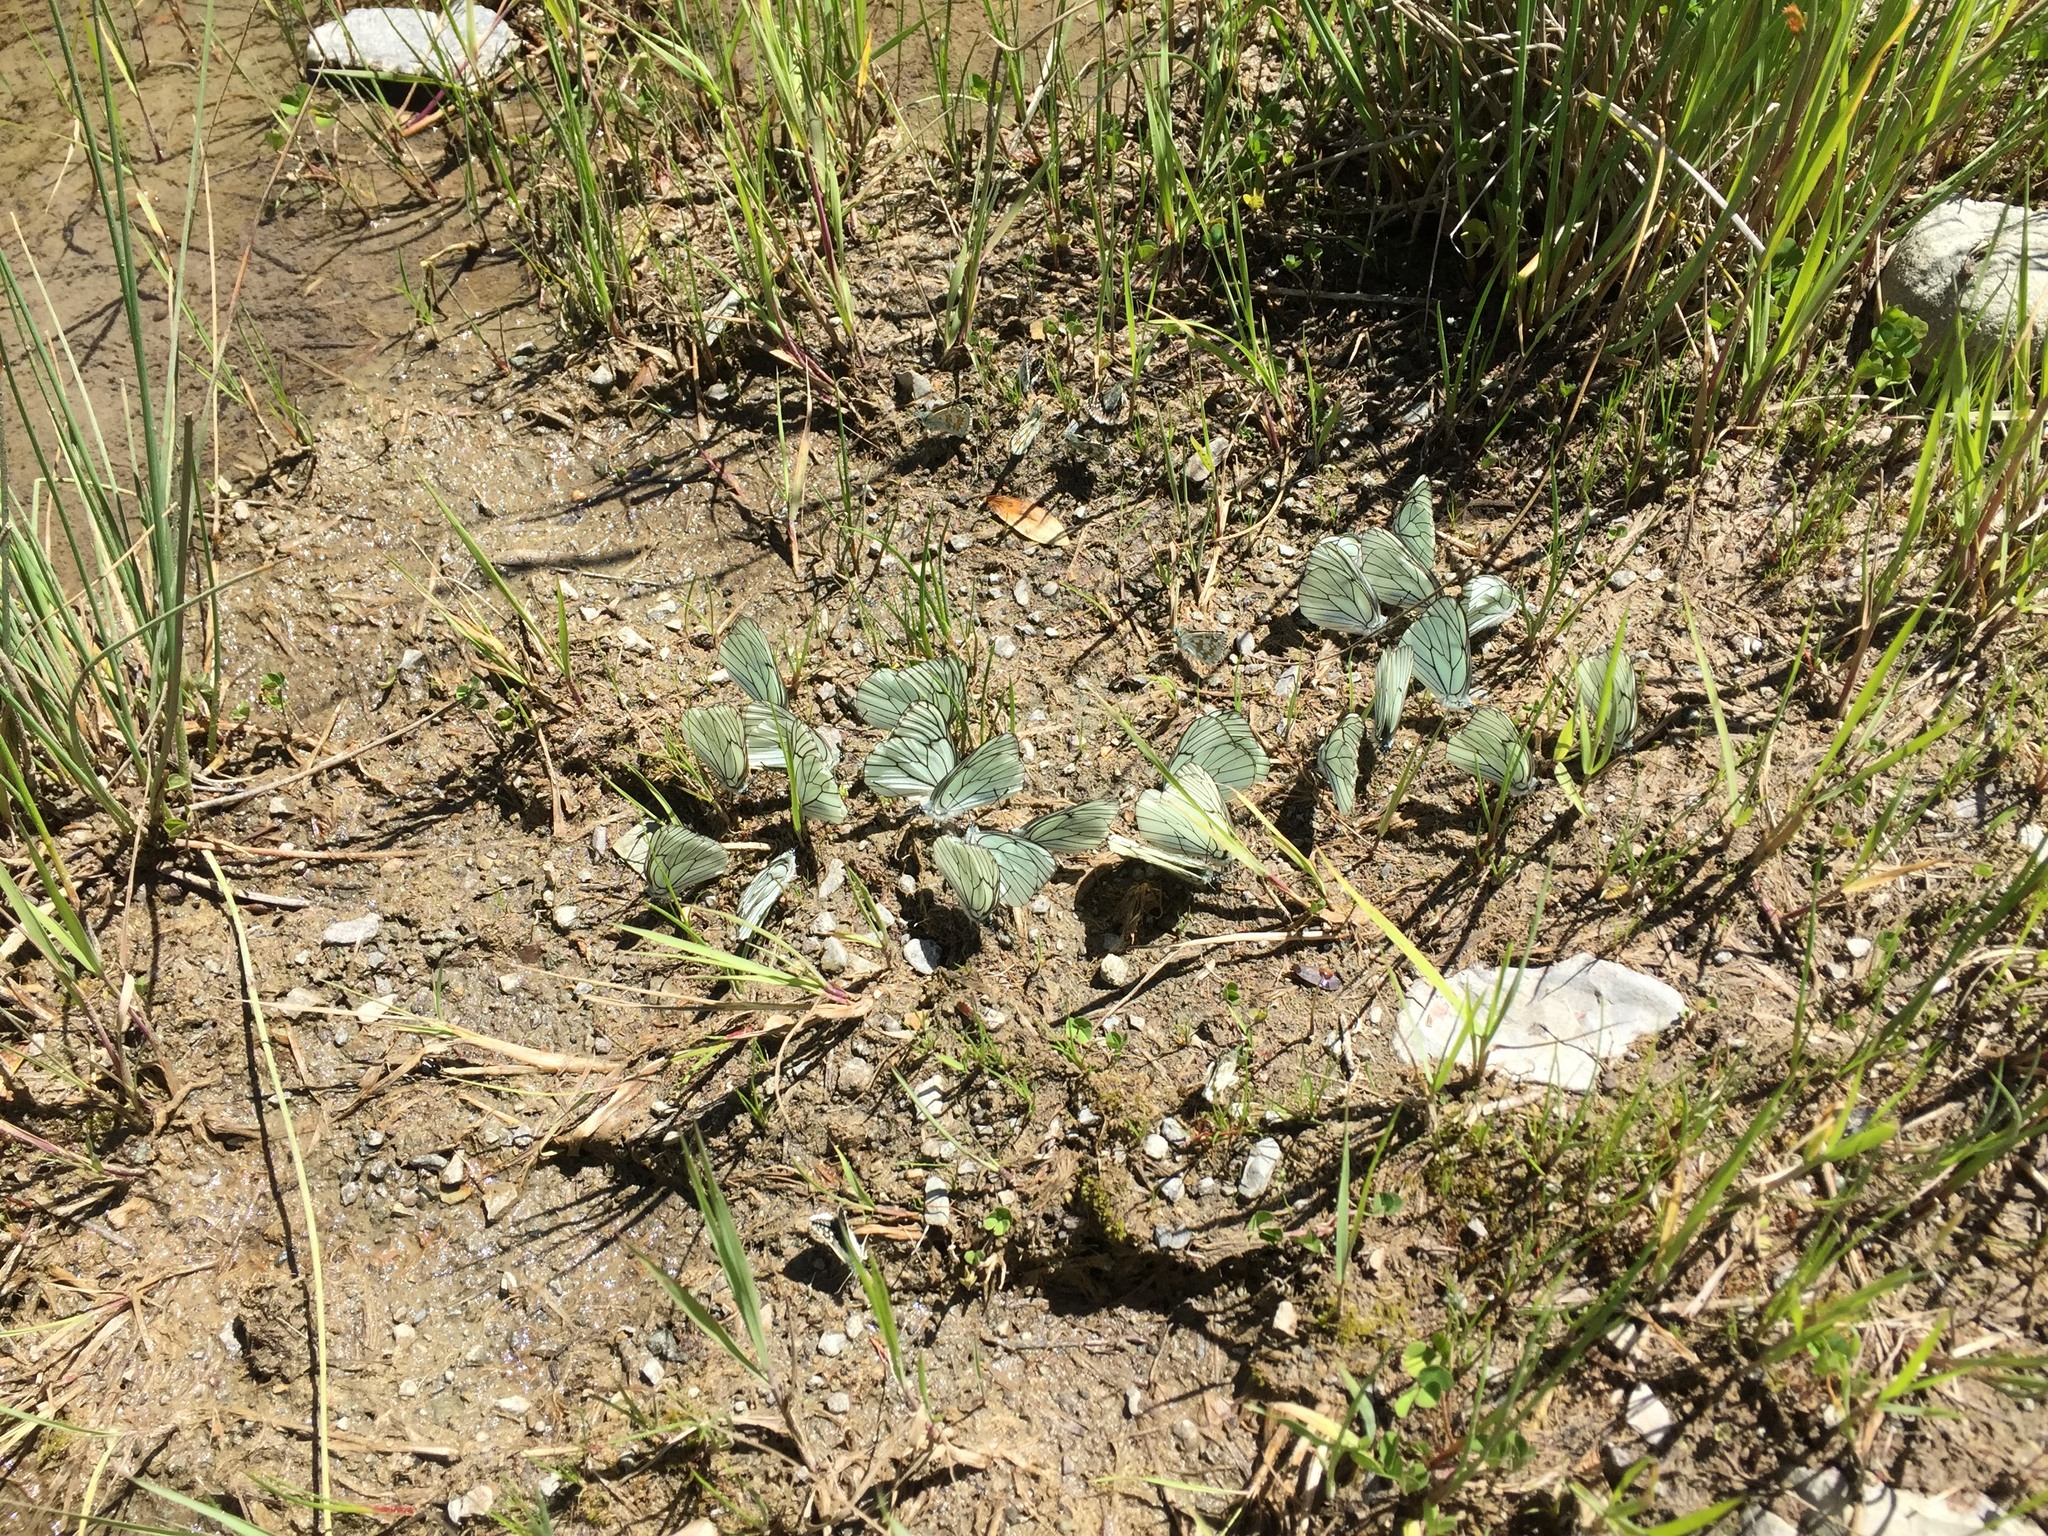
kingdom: Animalia
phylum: Arthropoda
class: Insecta
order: Lepidoptera
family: Pieridae
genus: Aporia
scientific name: Aporia crataegi
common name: Black-veined white
